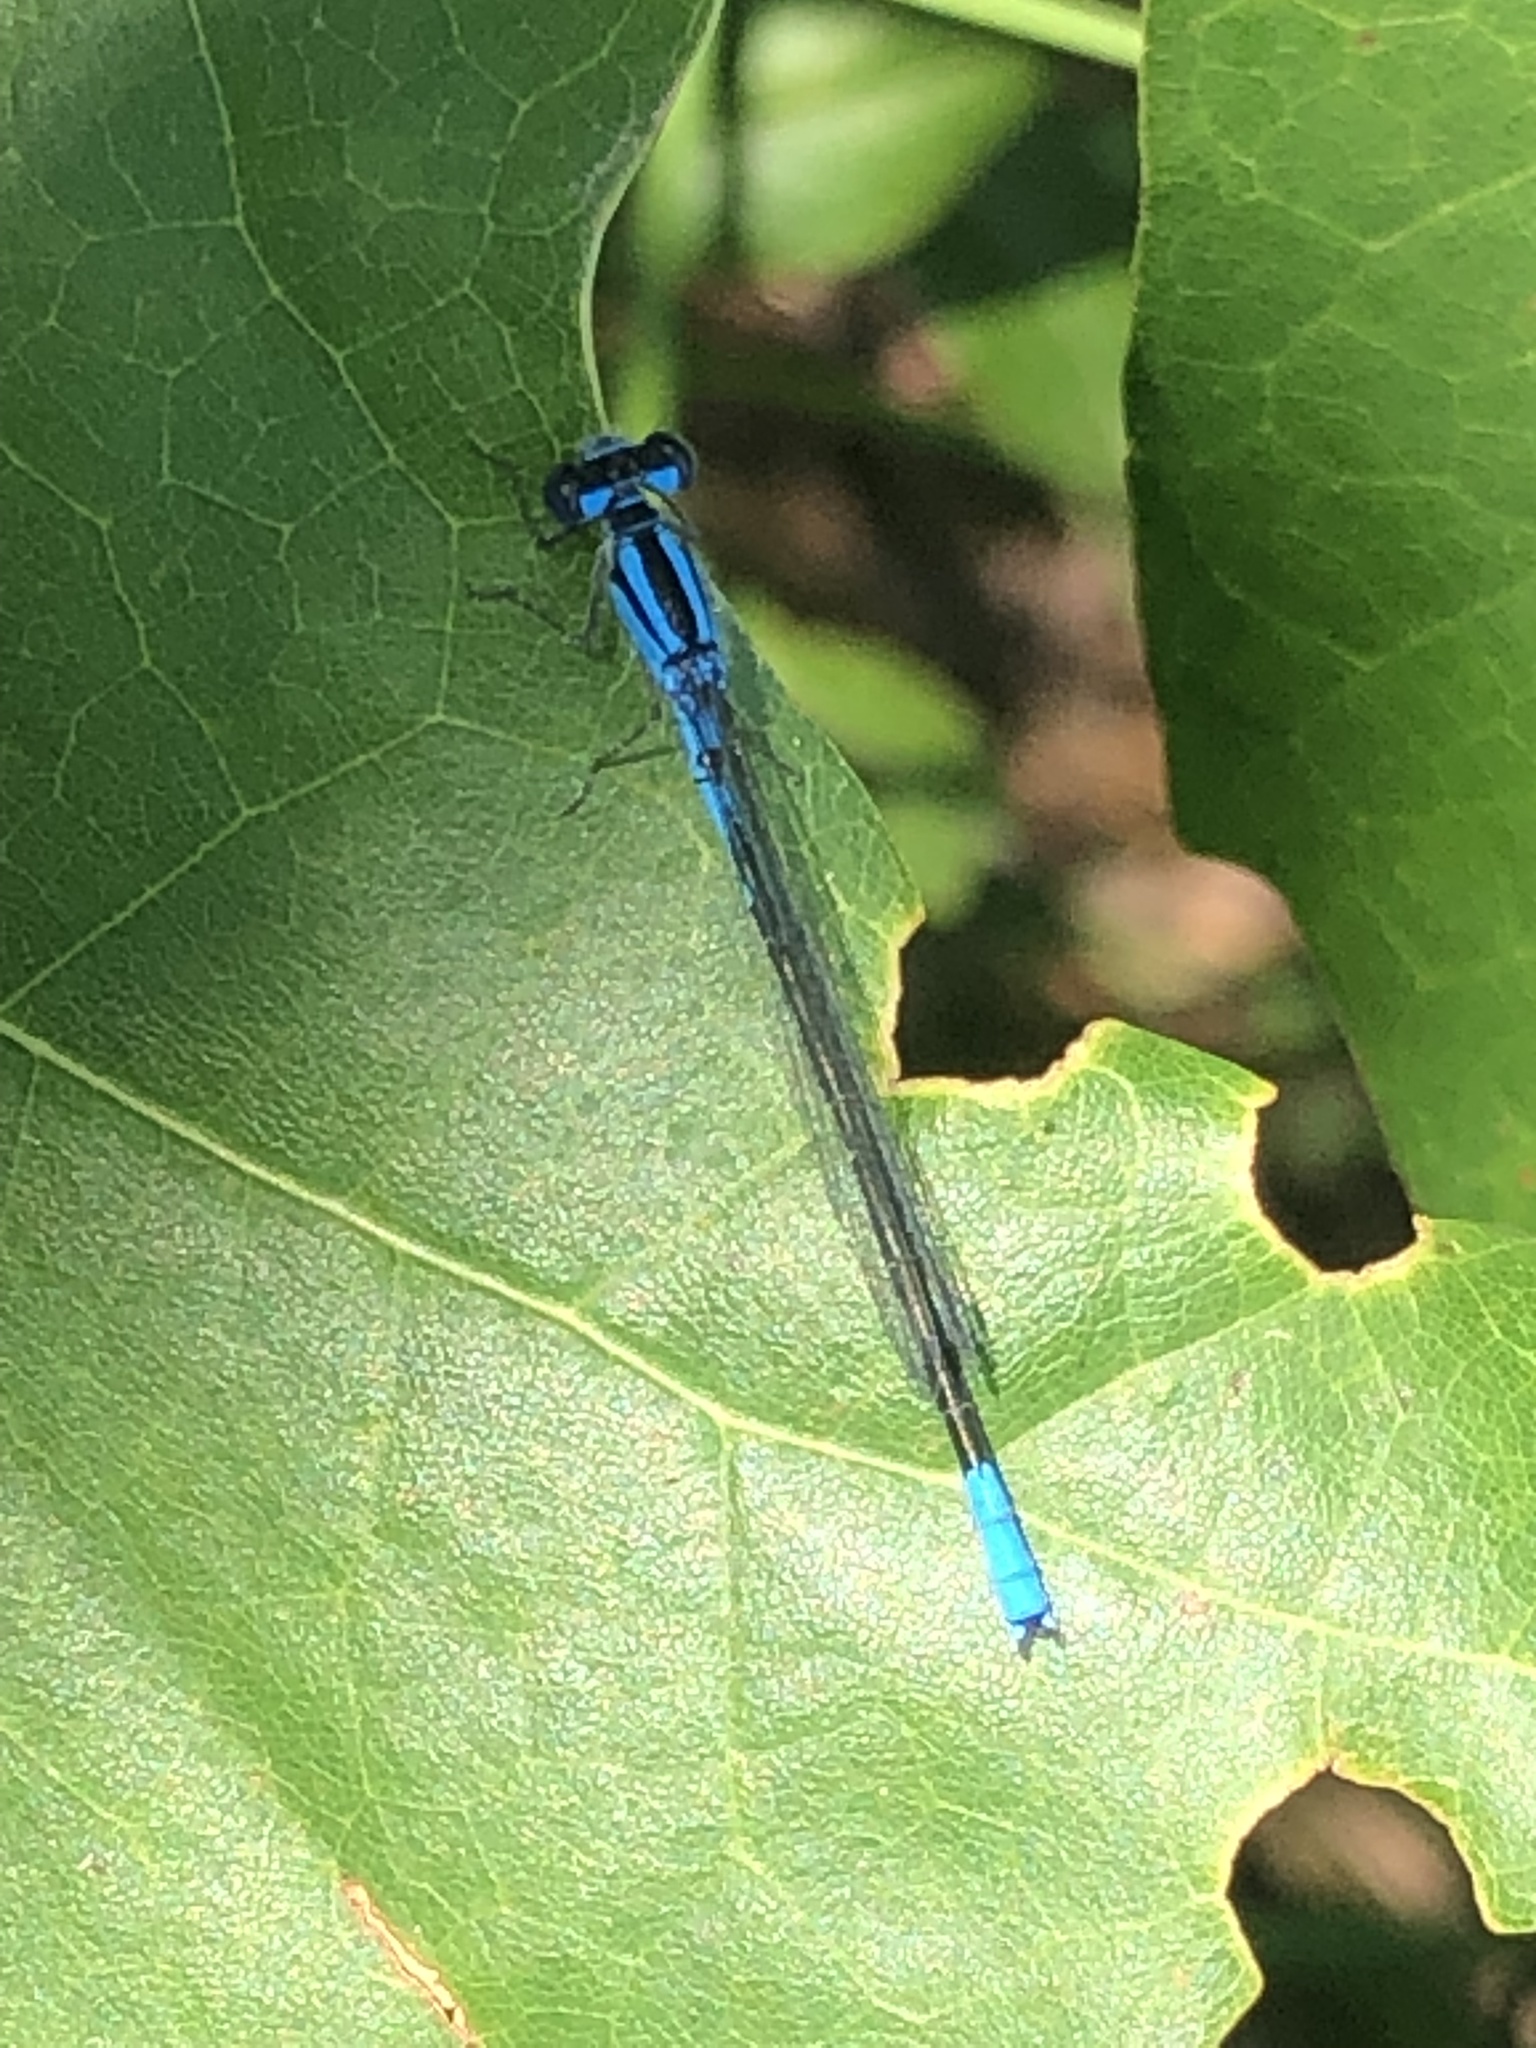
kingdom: Animalia
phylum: Arthropoda
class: Insecta
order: Odonata
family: Coenagrionidae
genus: Enallagma
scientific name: Enallagma aspersum
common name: Azure bluet
